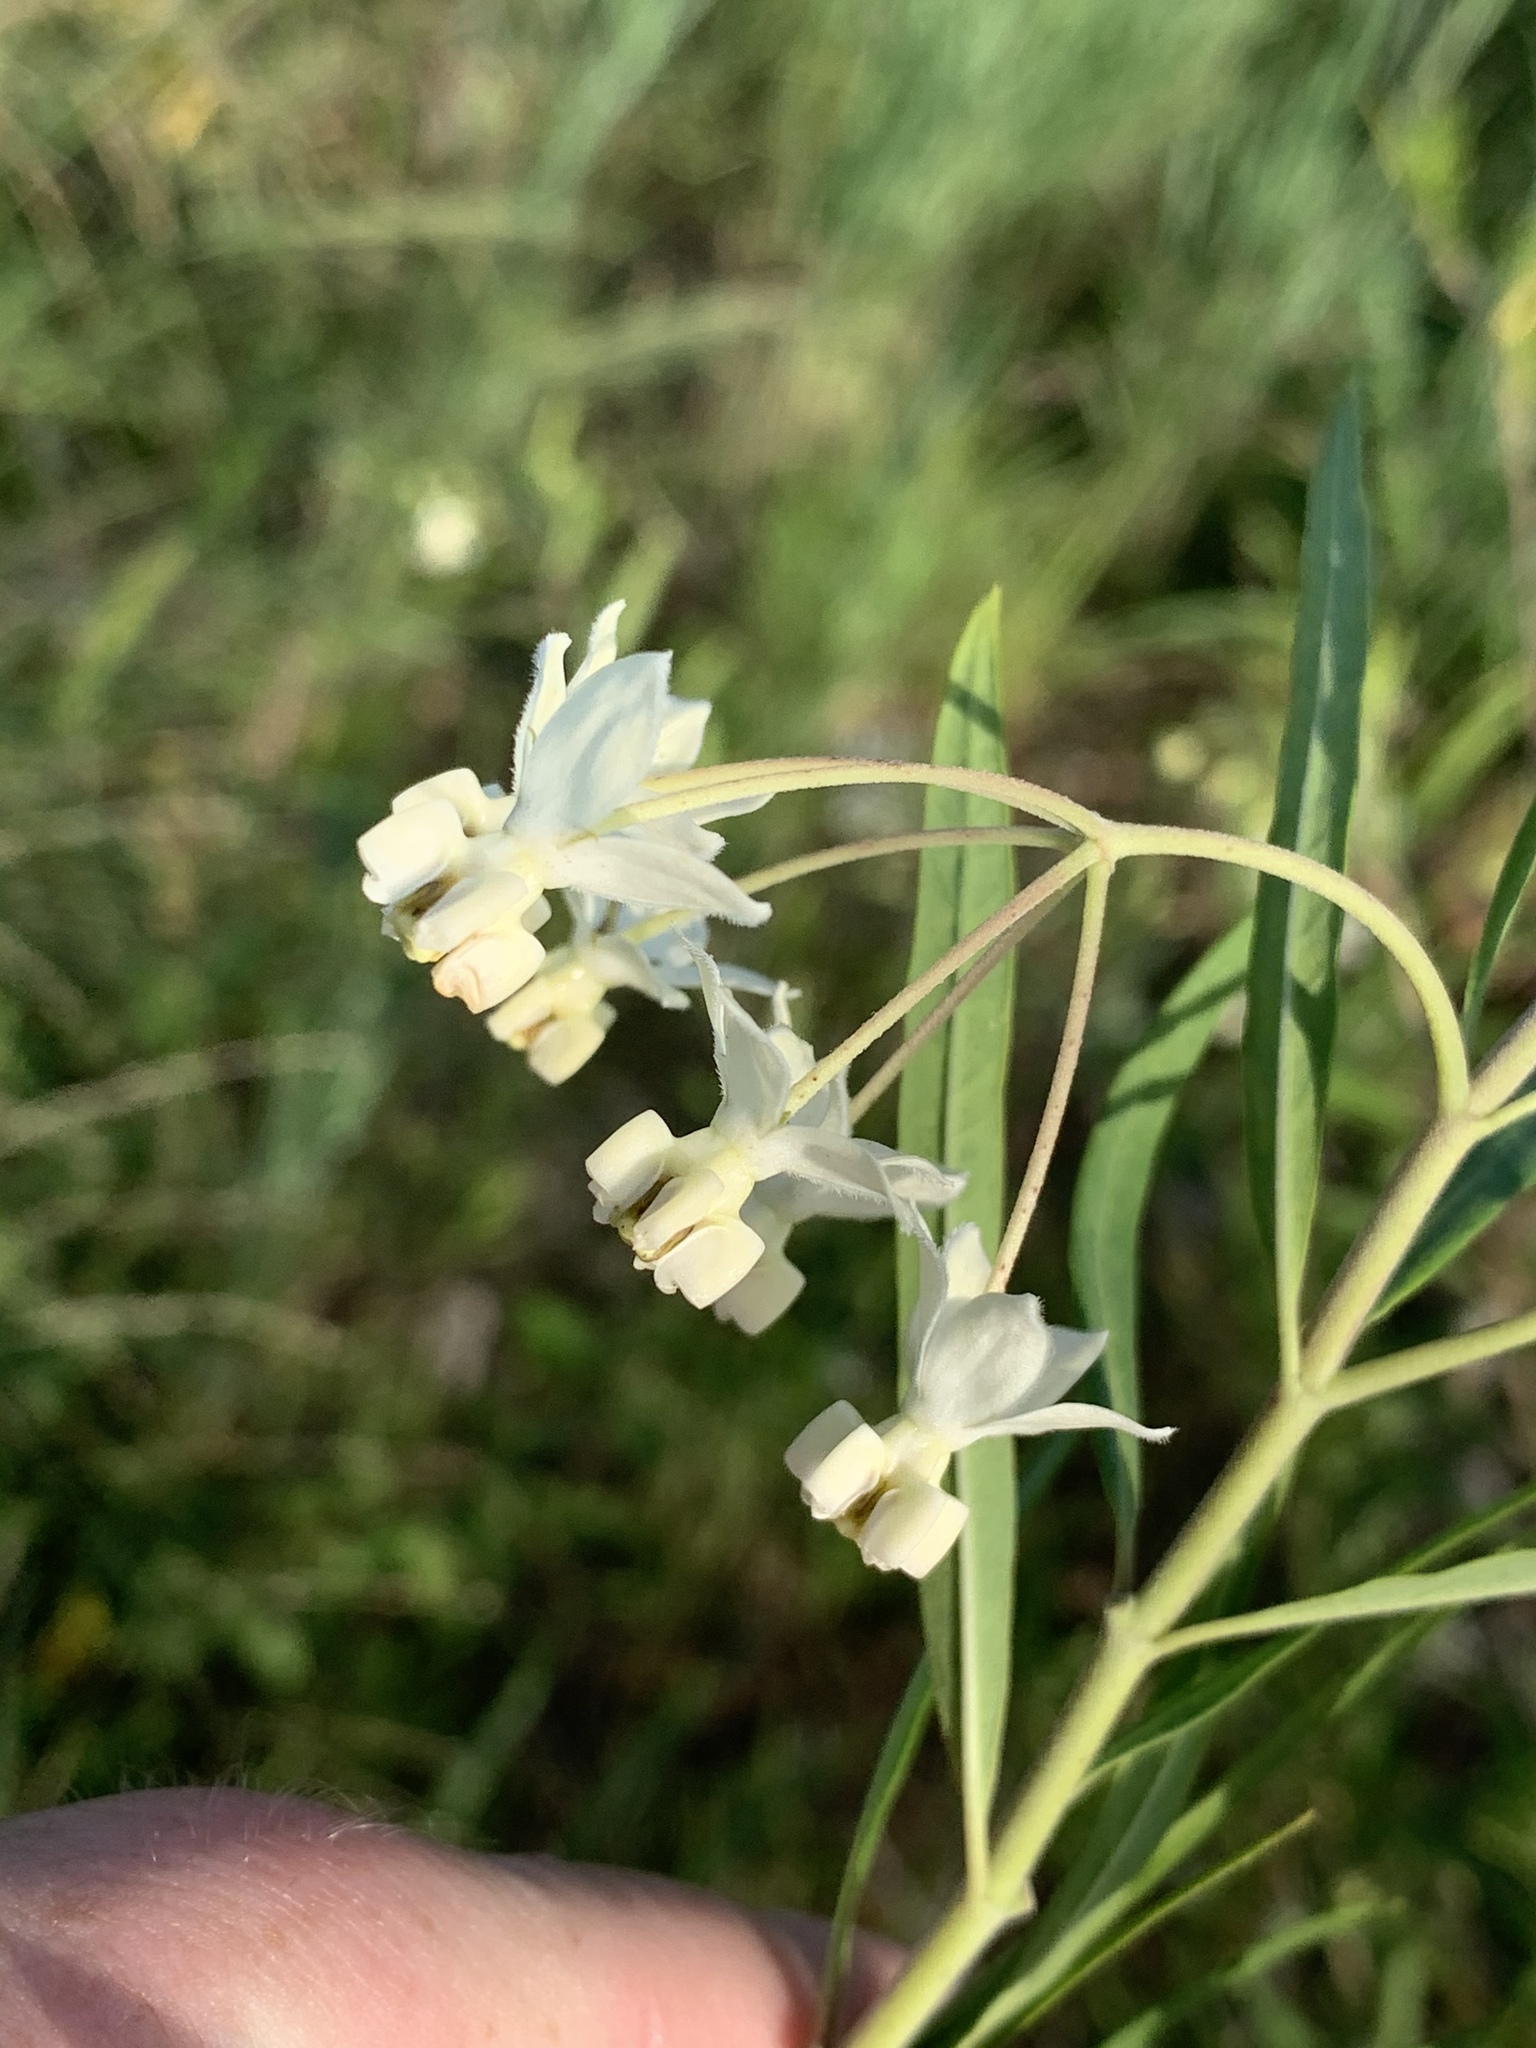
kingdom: Plantae
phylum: Tracheophyta
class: Magnoliopsida
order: Gentianales
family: Apocynaceae
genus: Gomphocarpus
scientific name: Gomphocarpus fruticosus
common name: Milkweed
